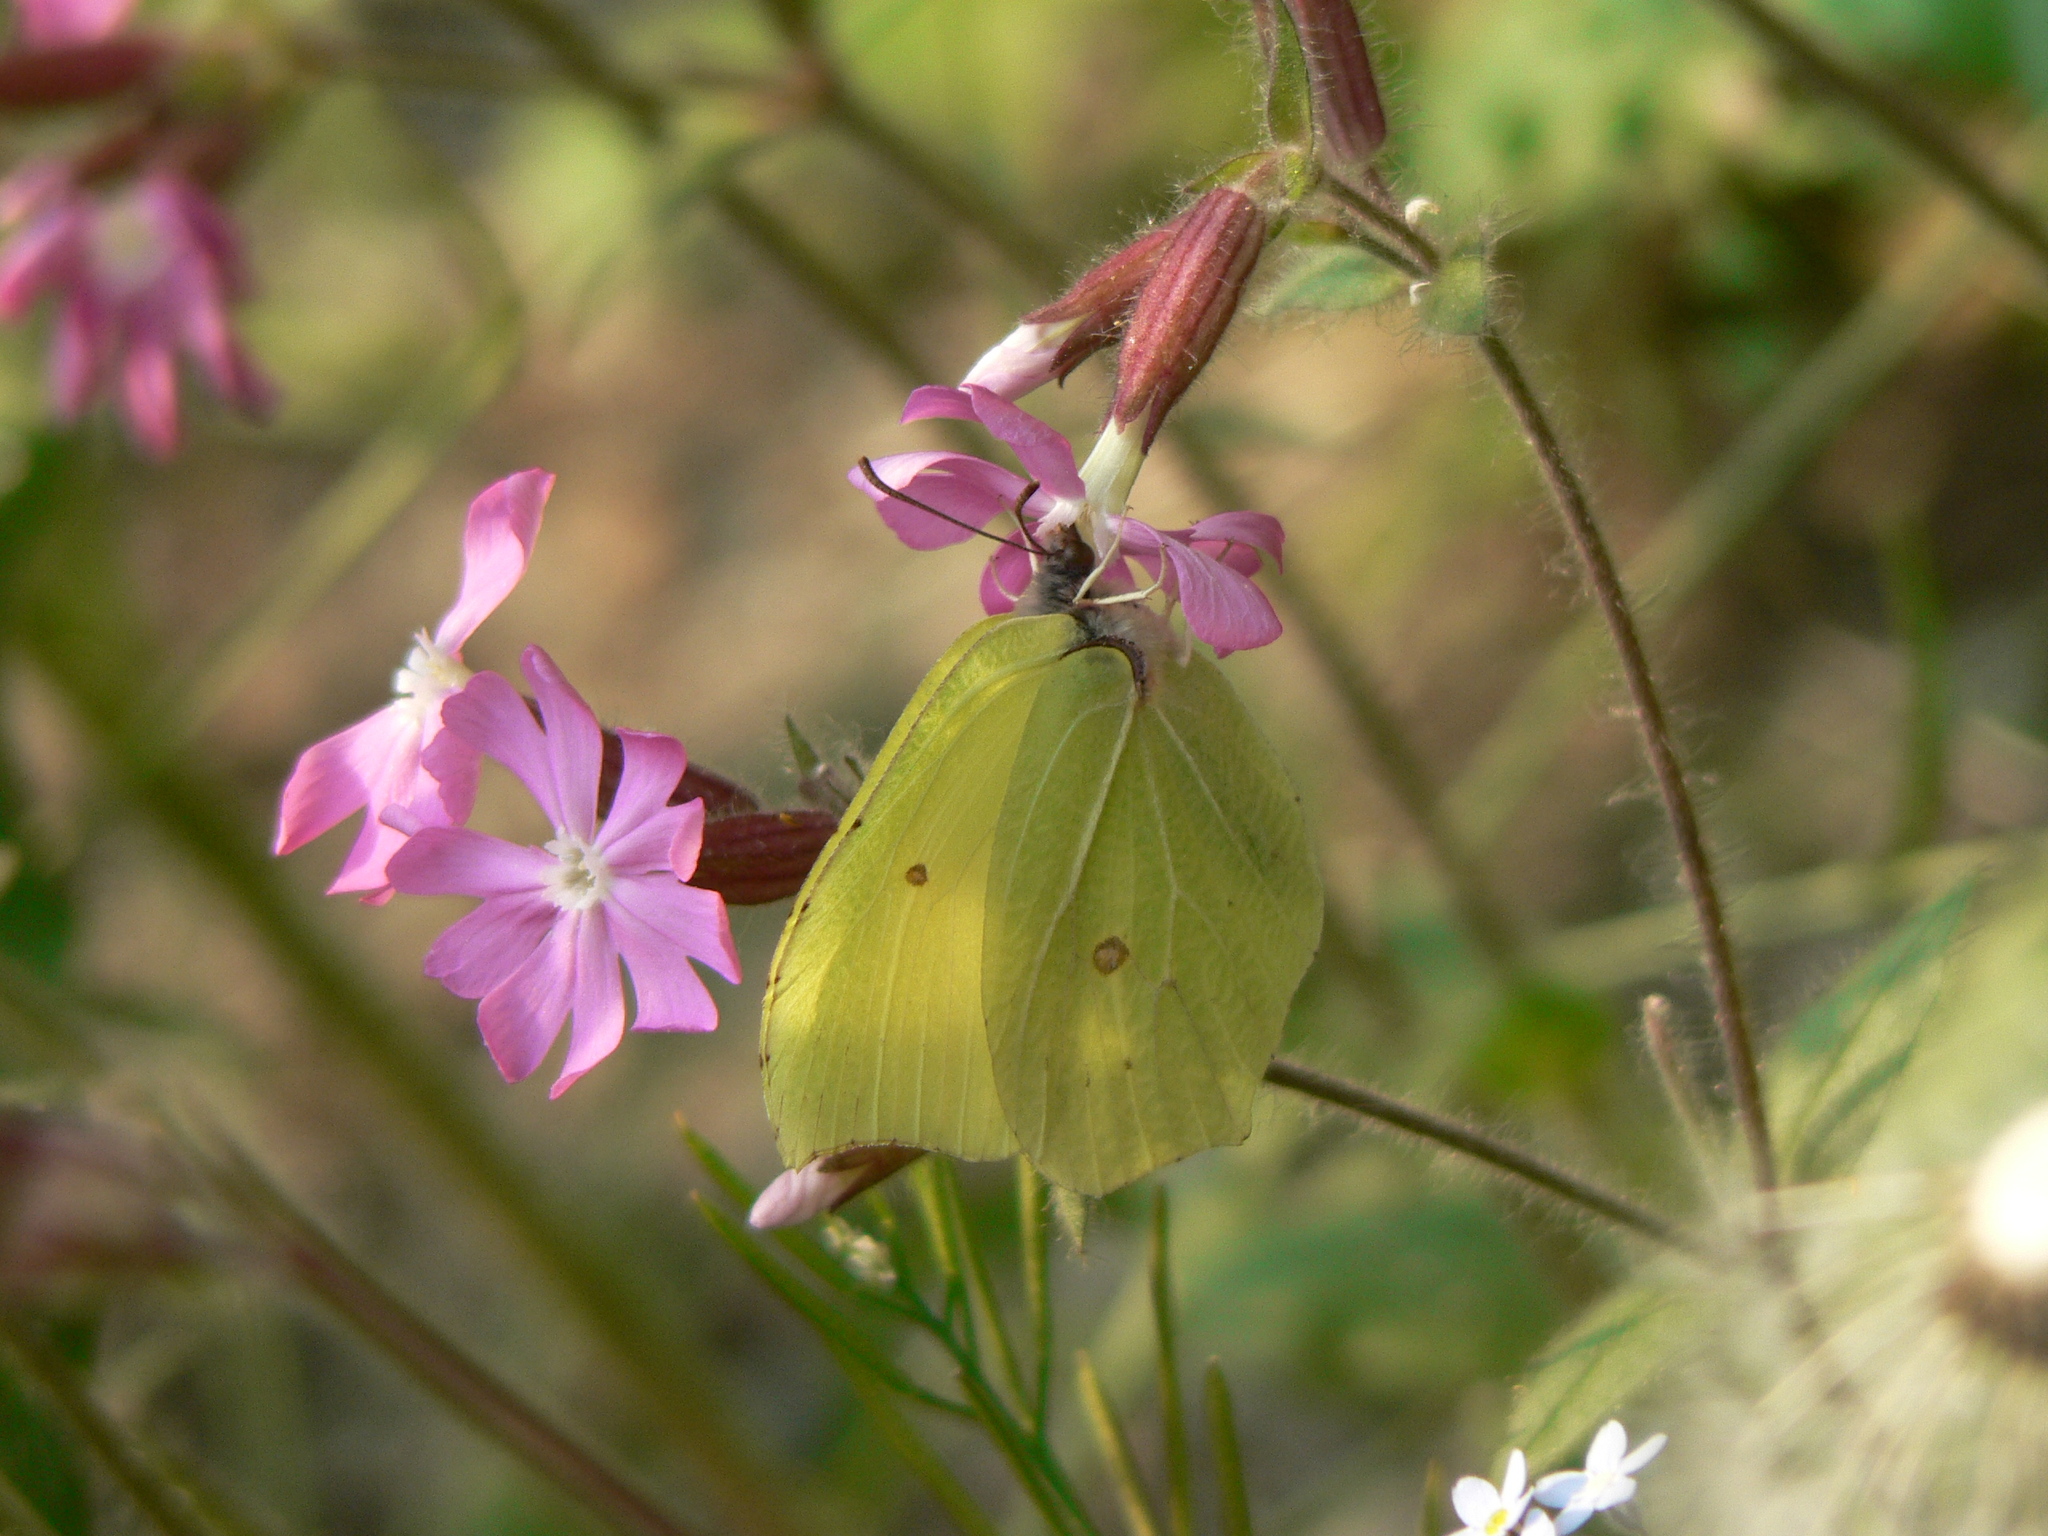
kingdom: Animalia
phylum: Arthropoda
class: Insecta
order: Lepidoptera
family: Pieridae
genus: Gonepteryx
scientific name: Gonepteryx rhamni
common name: Brimstone
